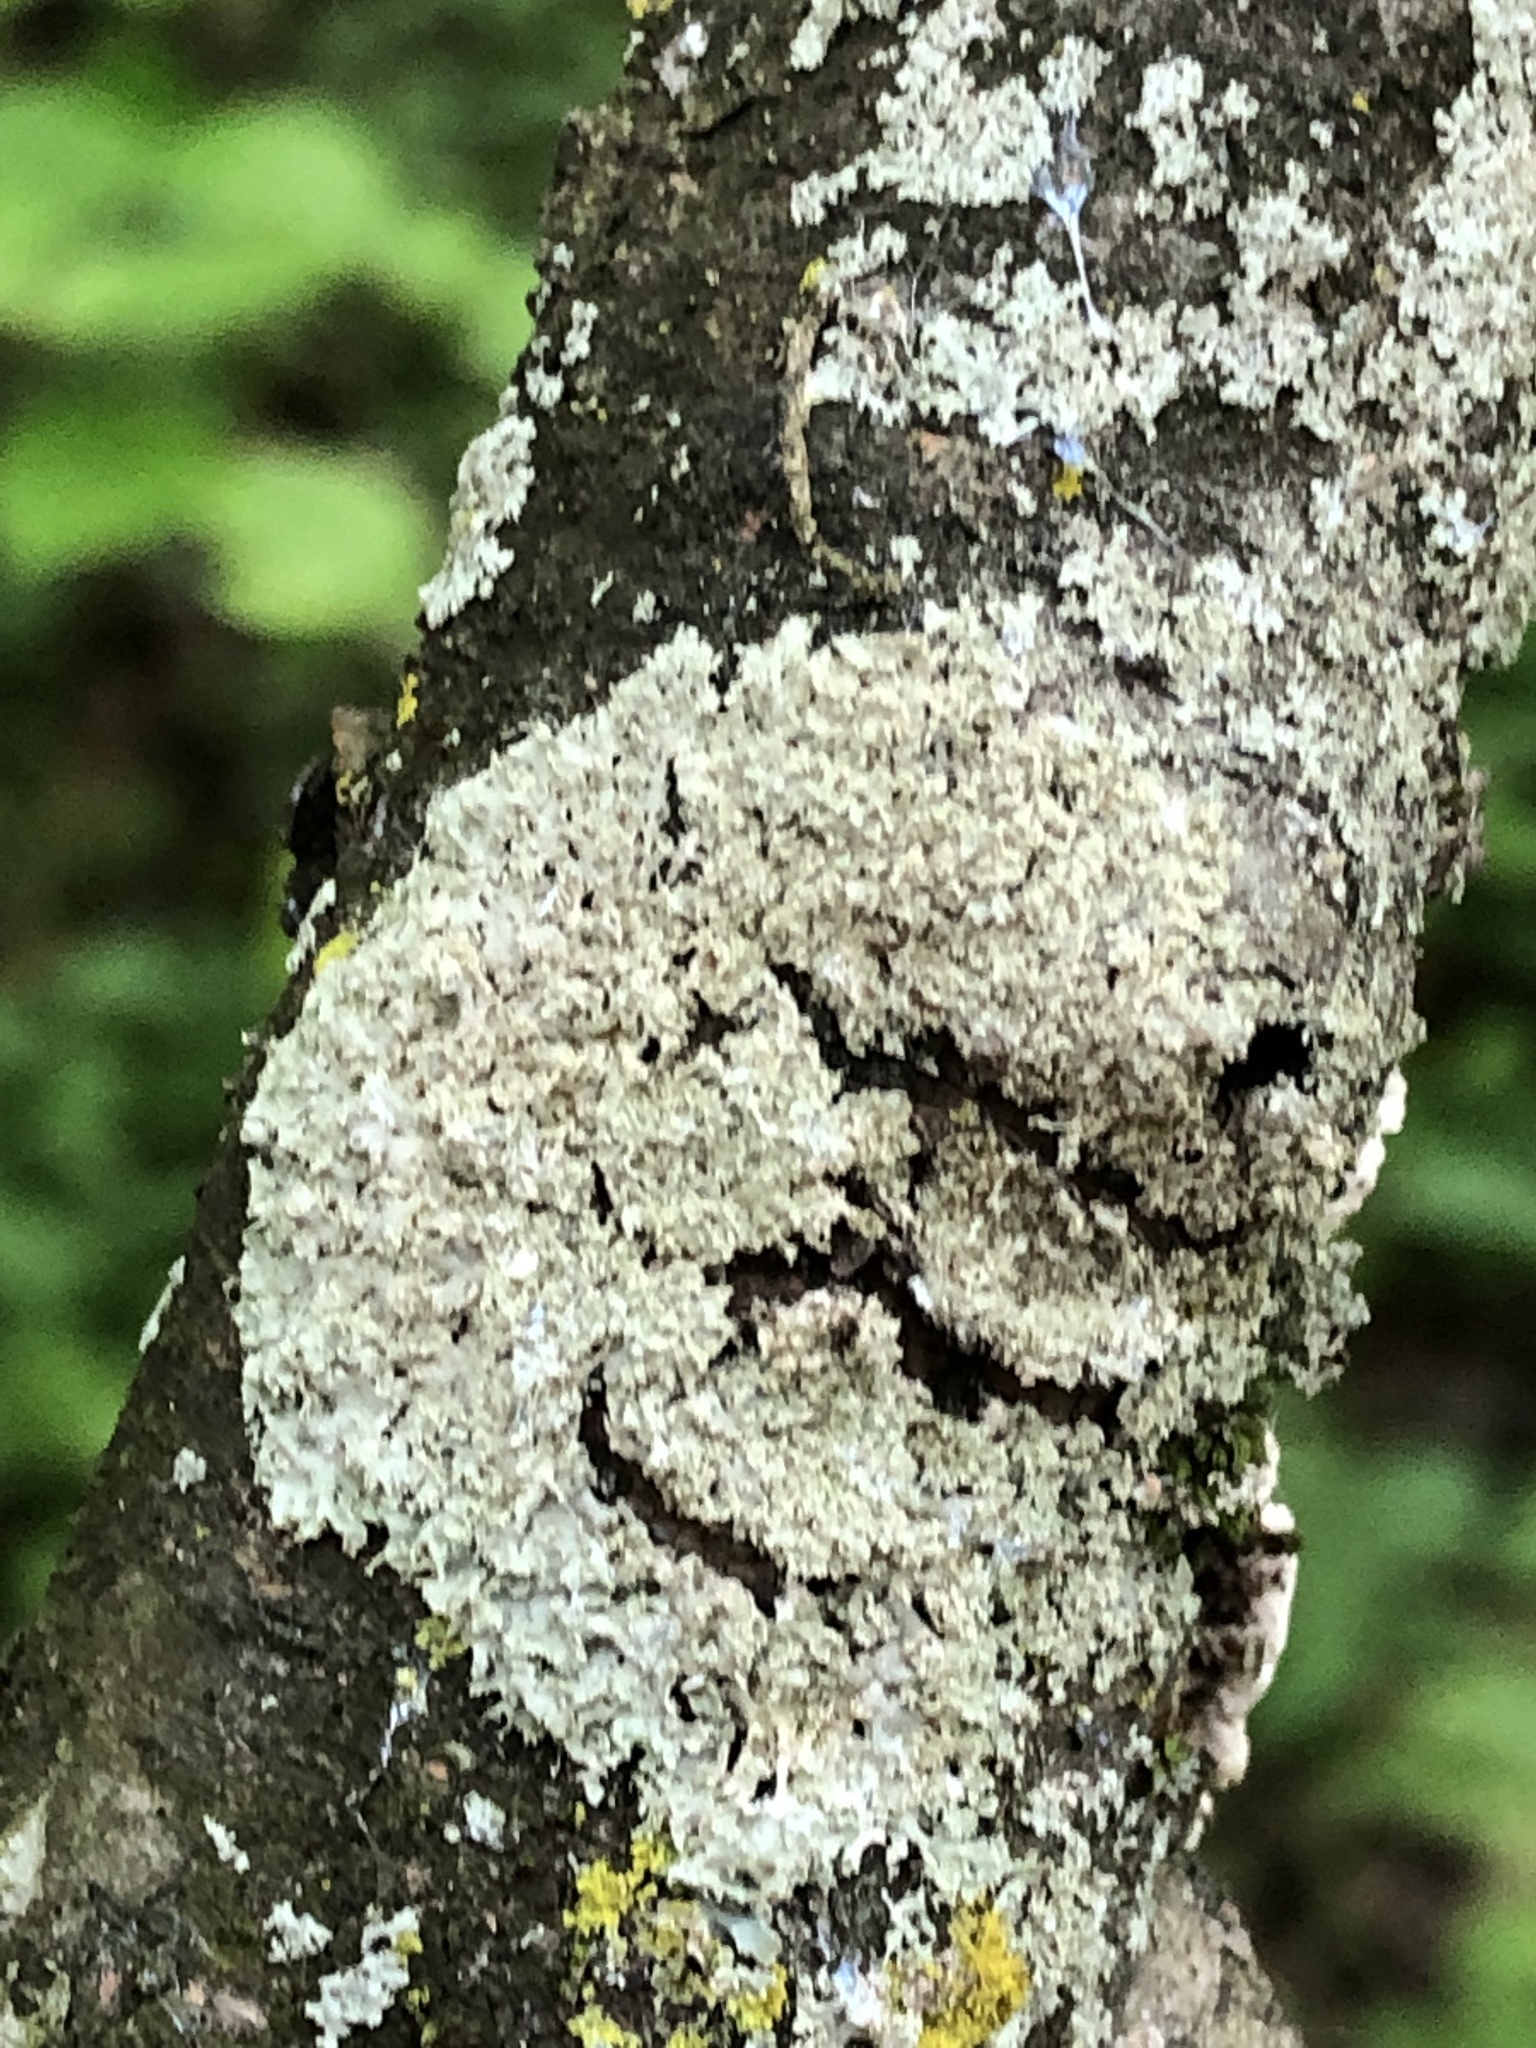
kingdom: Fungi
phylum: Ascomycota
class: Lecanoromycetes
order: Caliciales
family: Physciaceae
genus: Physcia
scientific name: Physcia millegrana
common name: Rosette lichen
